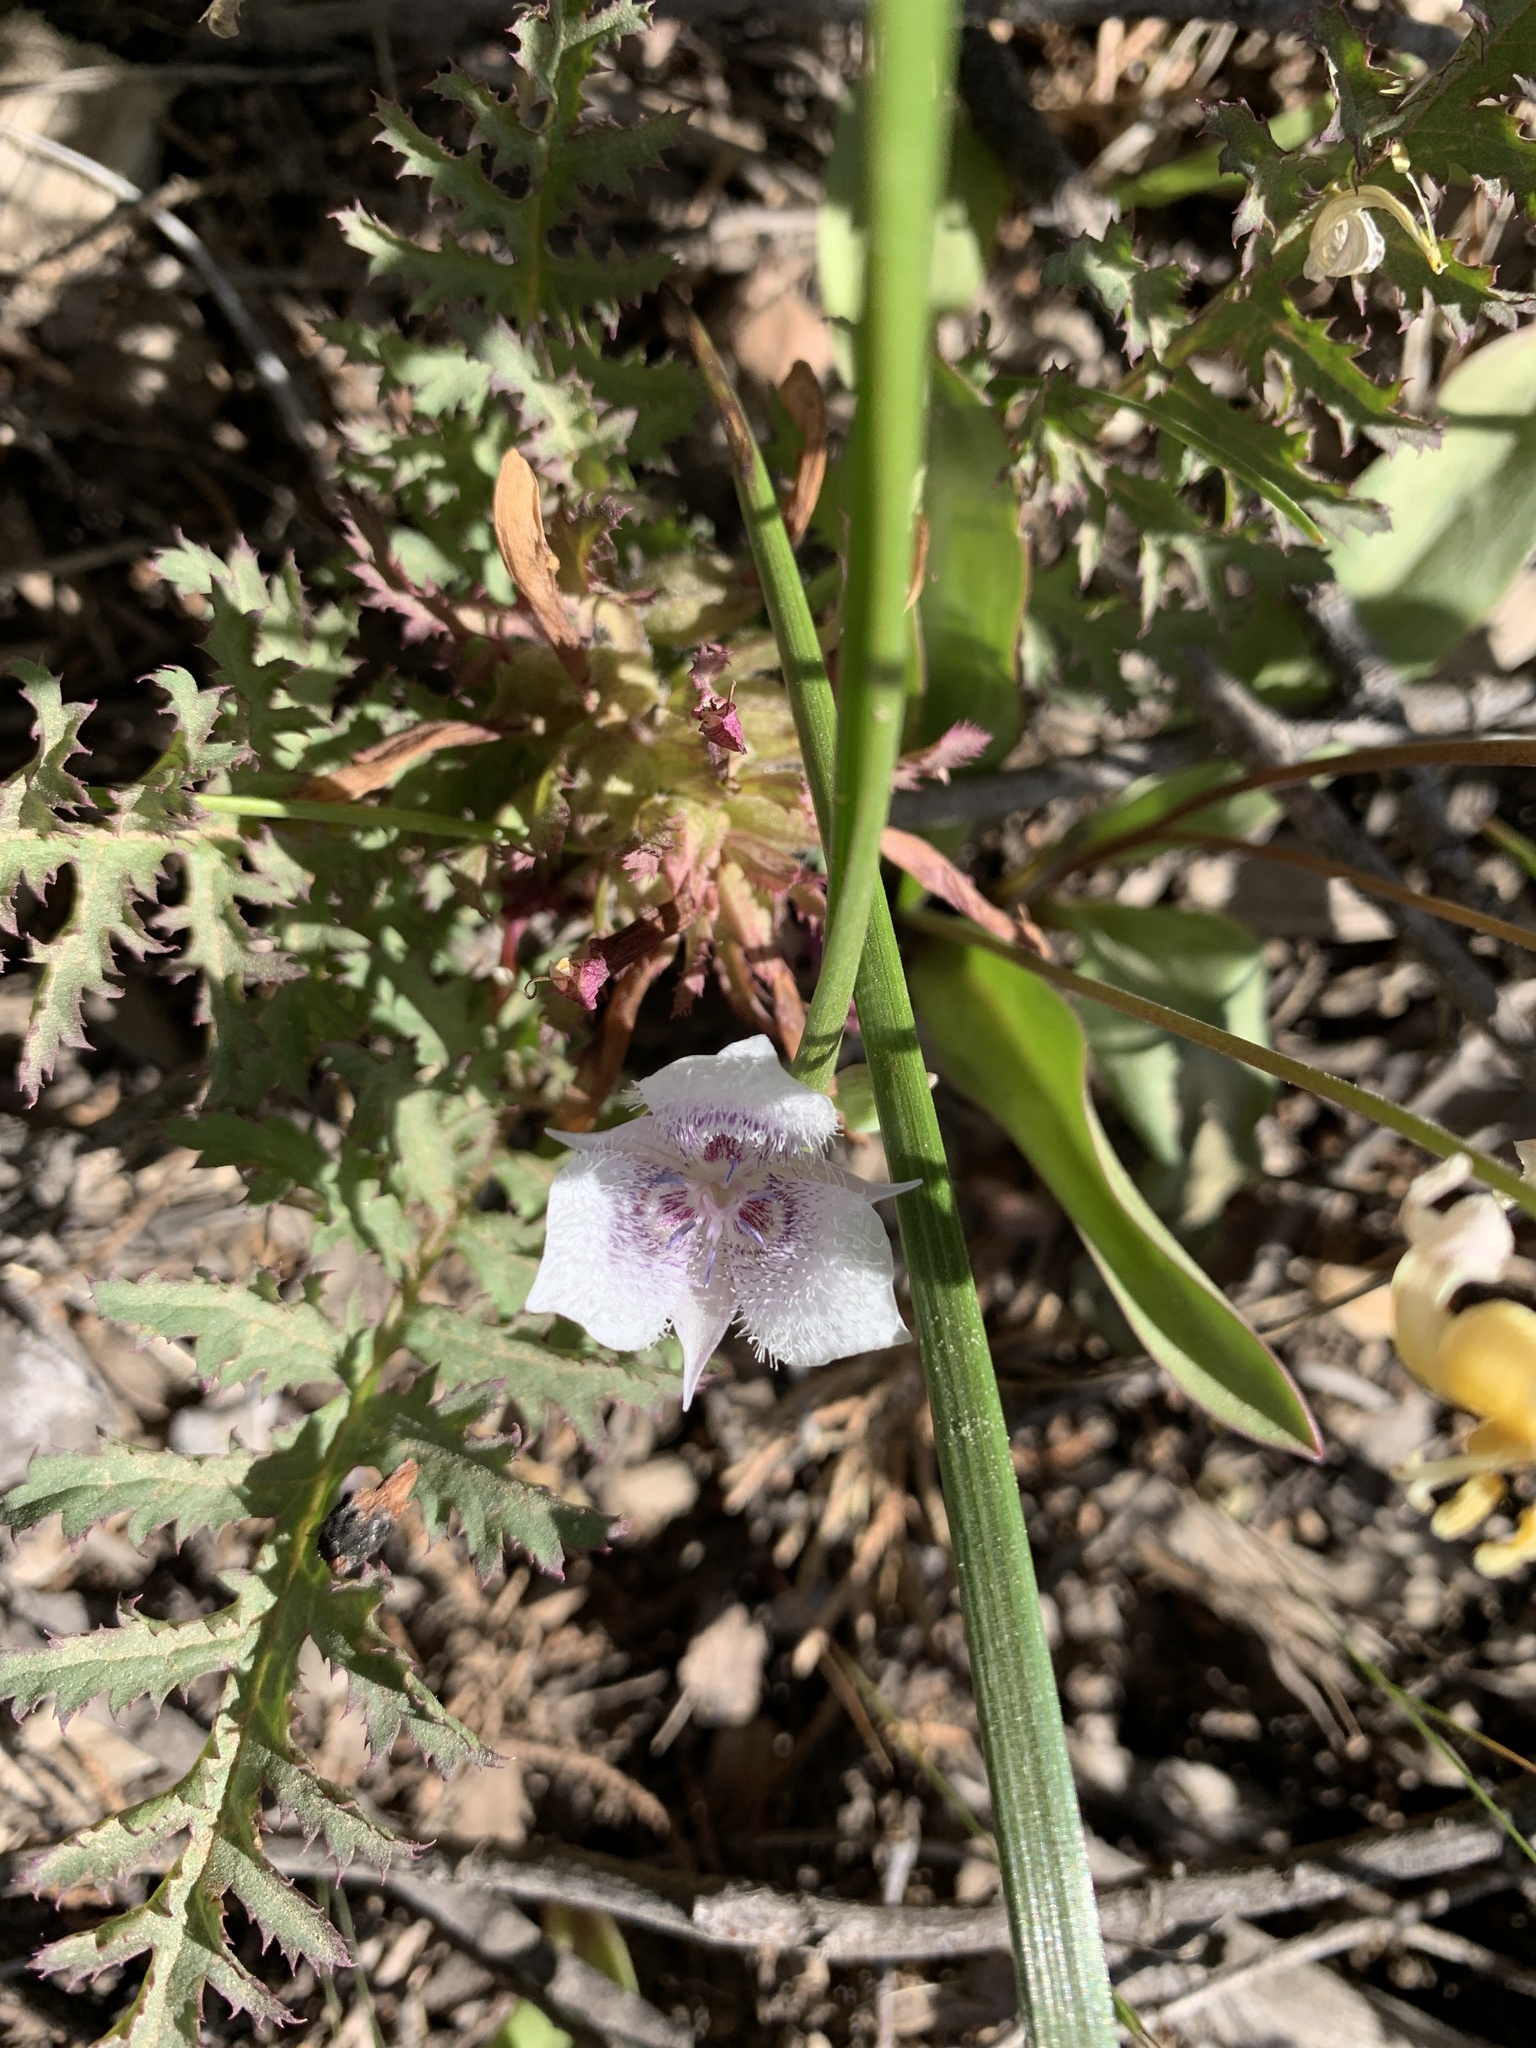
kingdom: Plantae
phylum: Tracheophyta
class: Liliopsida
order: Liliales
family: Liliaceae
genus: Calochortus
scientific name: Calochortus tolmiei
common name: Pussy-ears
